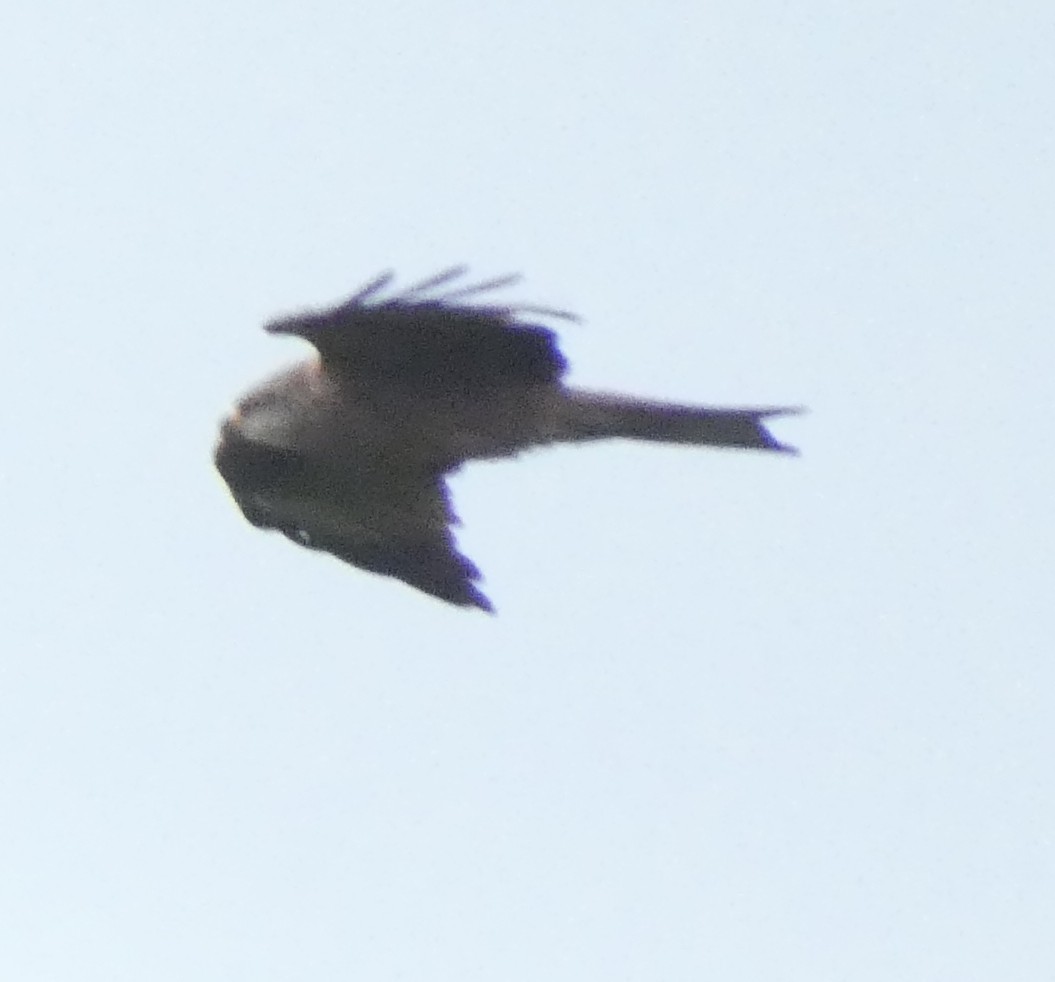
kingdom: Animalia
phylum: Chordata
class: Aves
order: Accipitriformes
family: Accipitridae
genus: Milvus
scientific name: Milvus migrans
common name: Black kite
